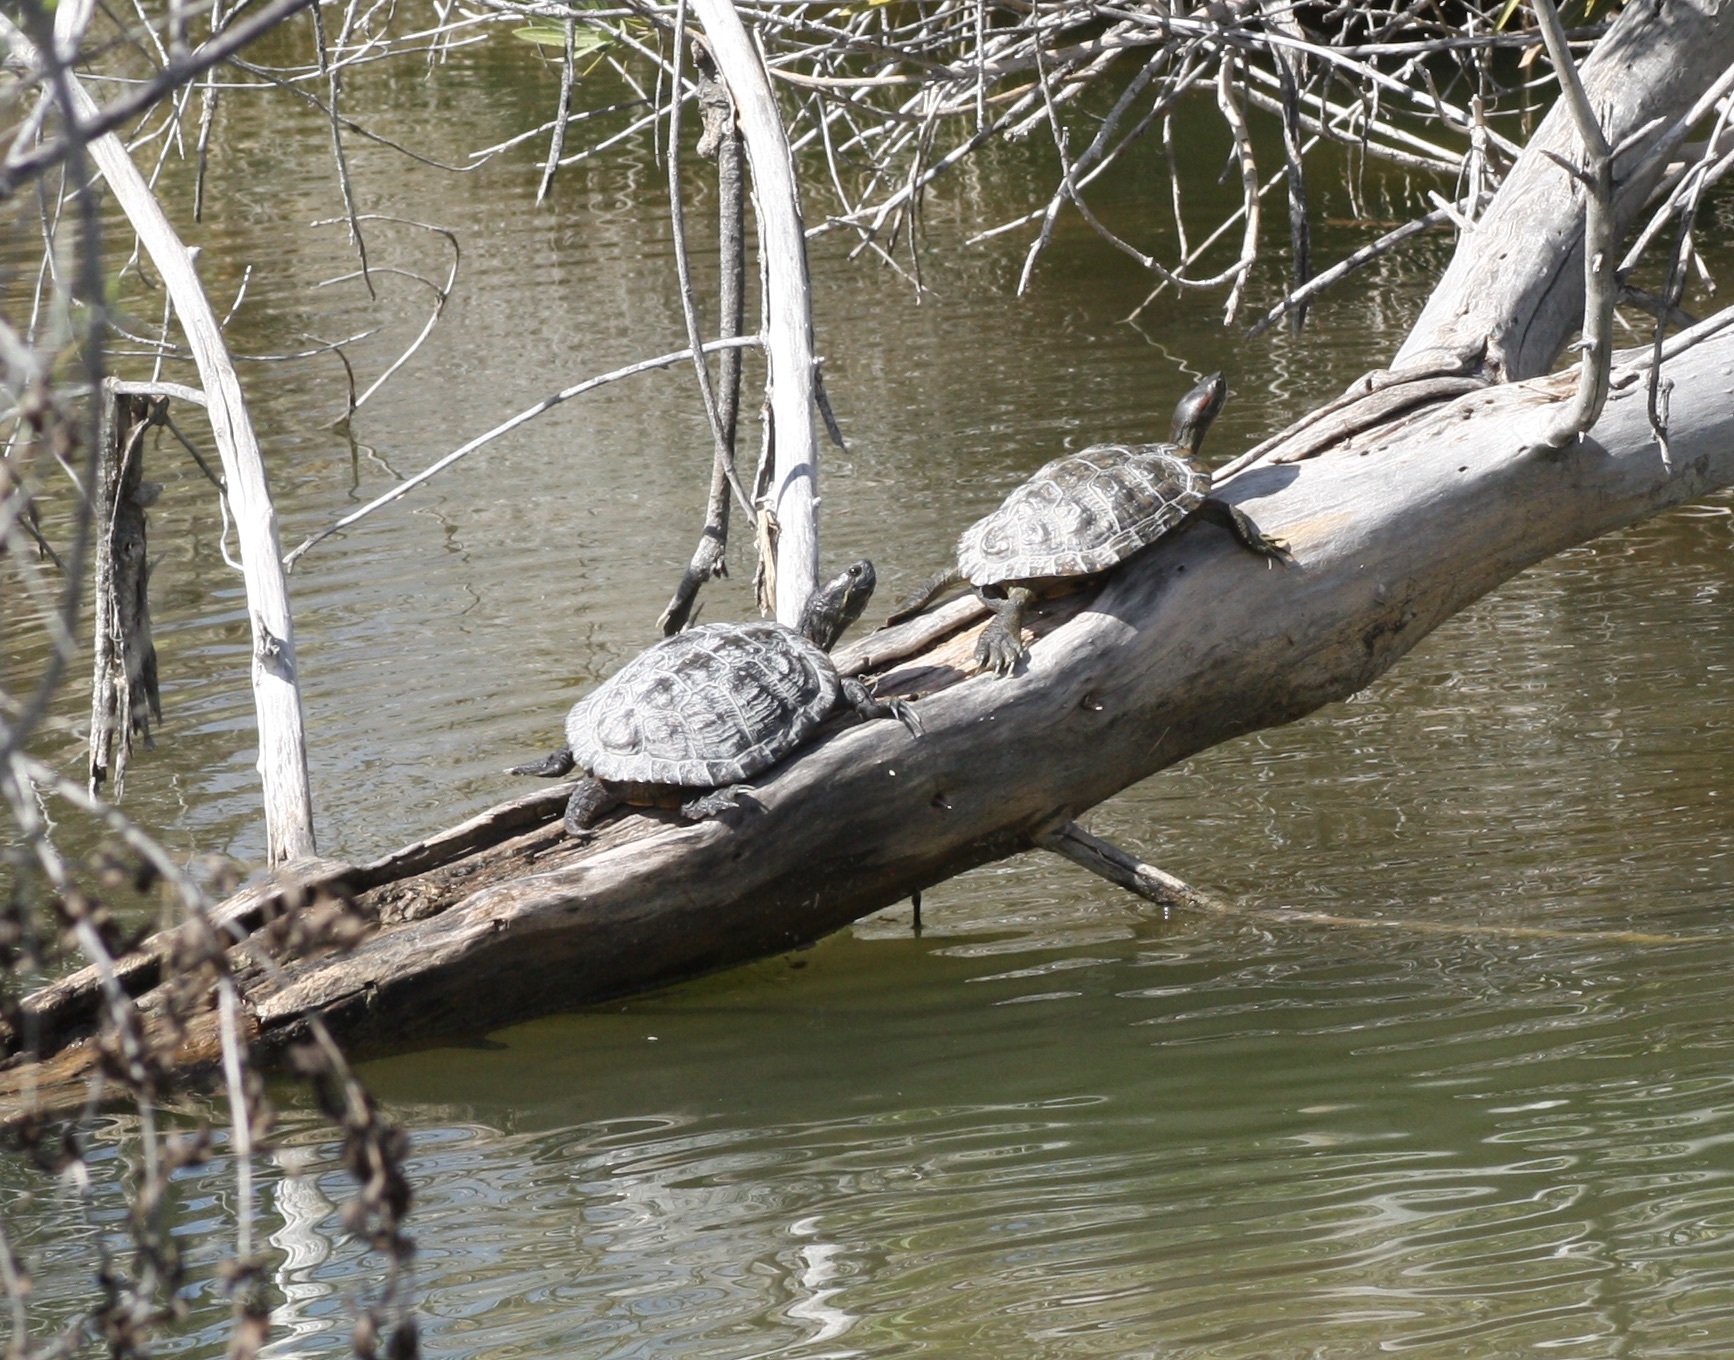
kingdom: Animalia
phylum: Chordata
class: Testudines
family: Emydidae
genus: Trachemys
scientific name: Trachemys scripta
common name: Slider
